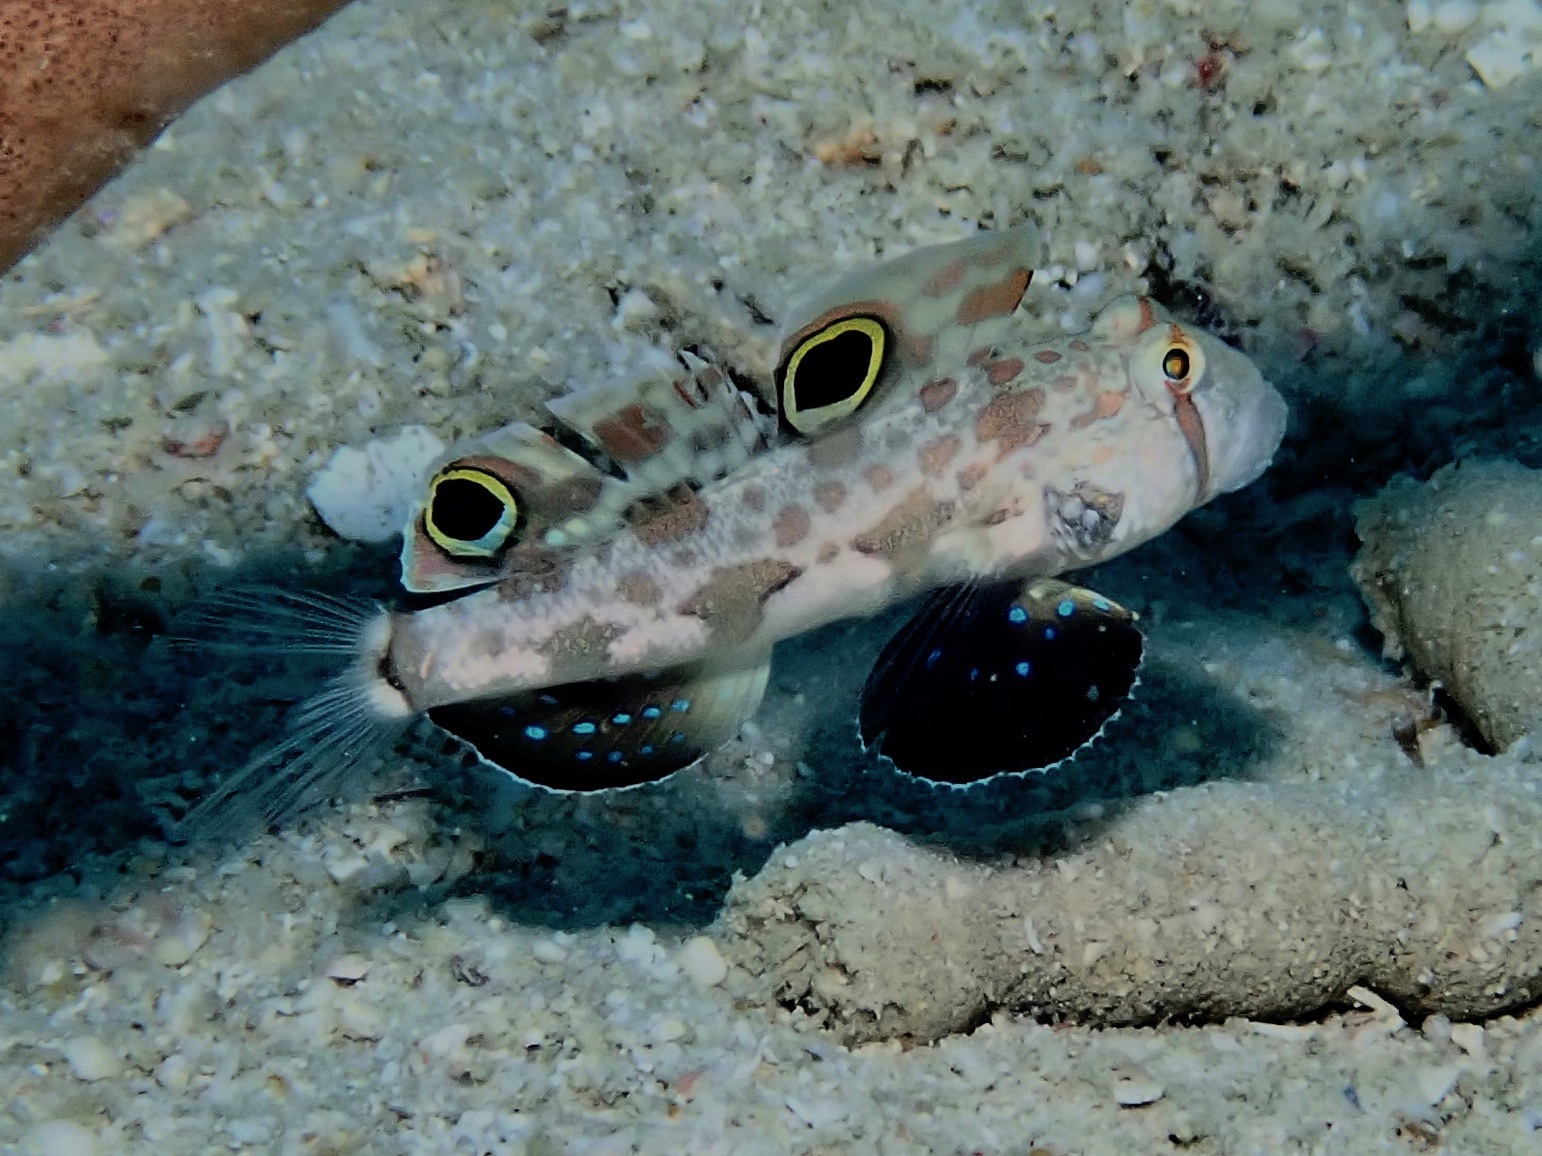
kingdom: Animalia
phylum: Chordata
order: Perciformes
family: Gobiidae
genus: Signigobius
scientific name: Signigobius biocellatus
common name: Crab-eye goby
